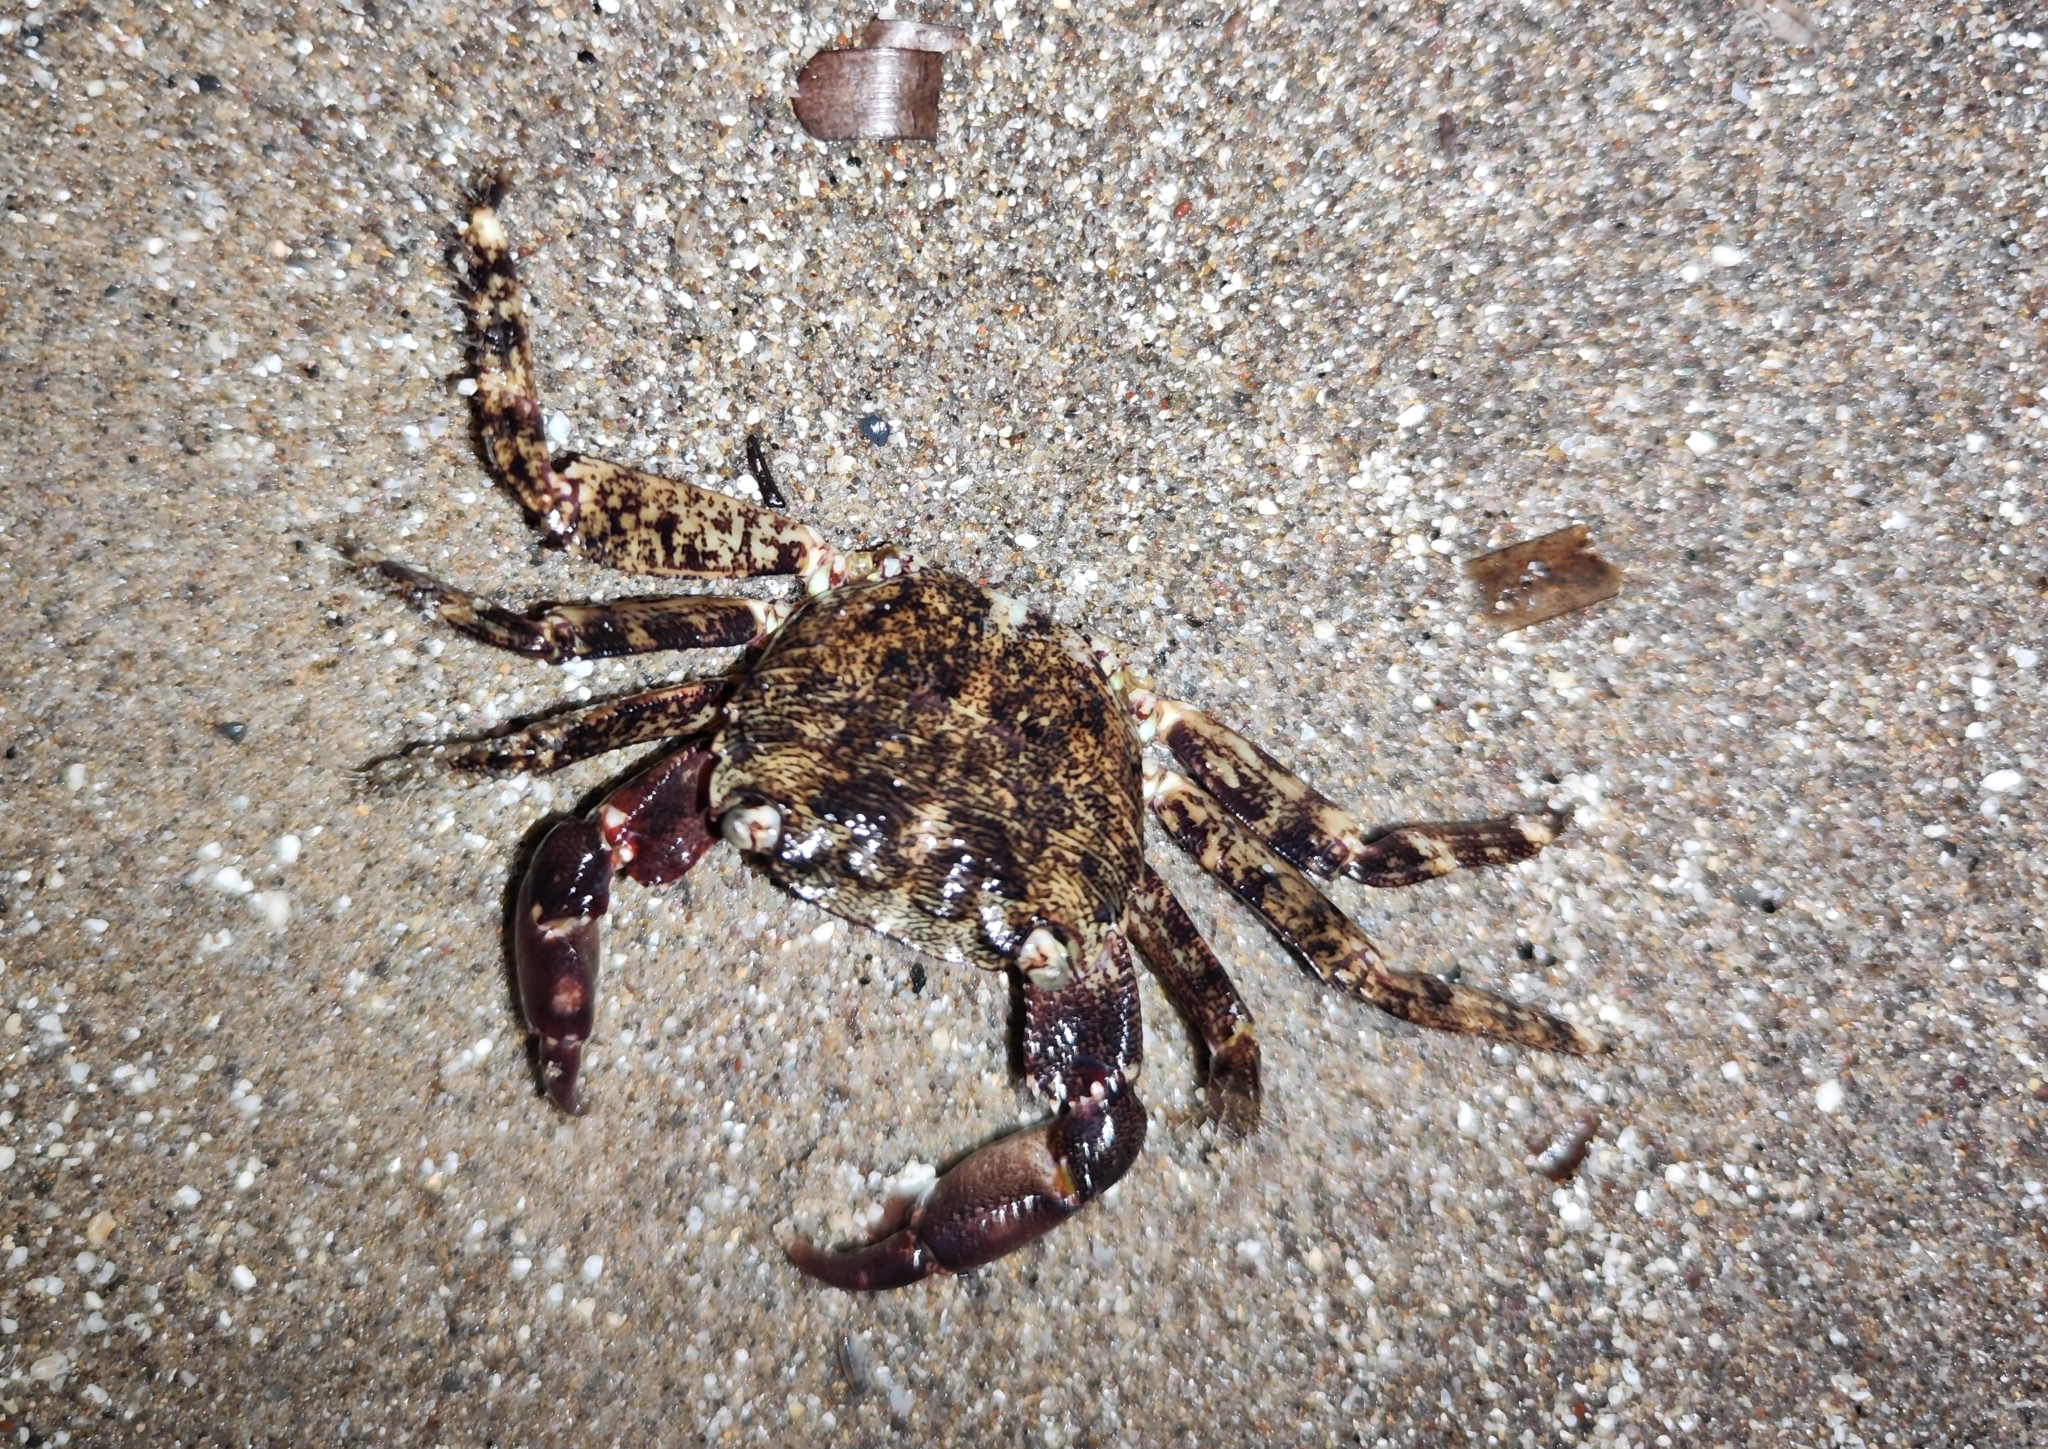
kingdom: Animalia
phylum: Arthropoda
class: Malacostraca
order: Decapoda
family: Grapsidae
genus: Pachygrapsus
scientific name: Pachygrapsus marmoratus
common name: Marbled rock crab
